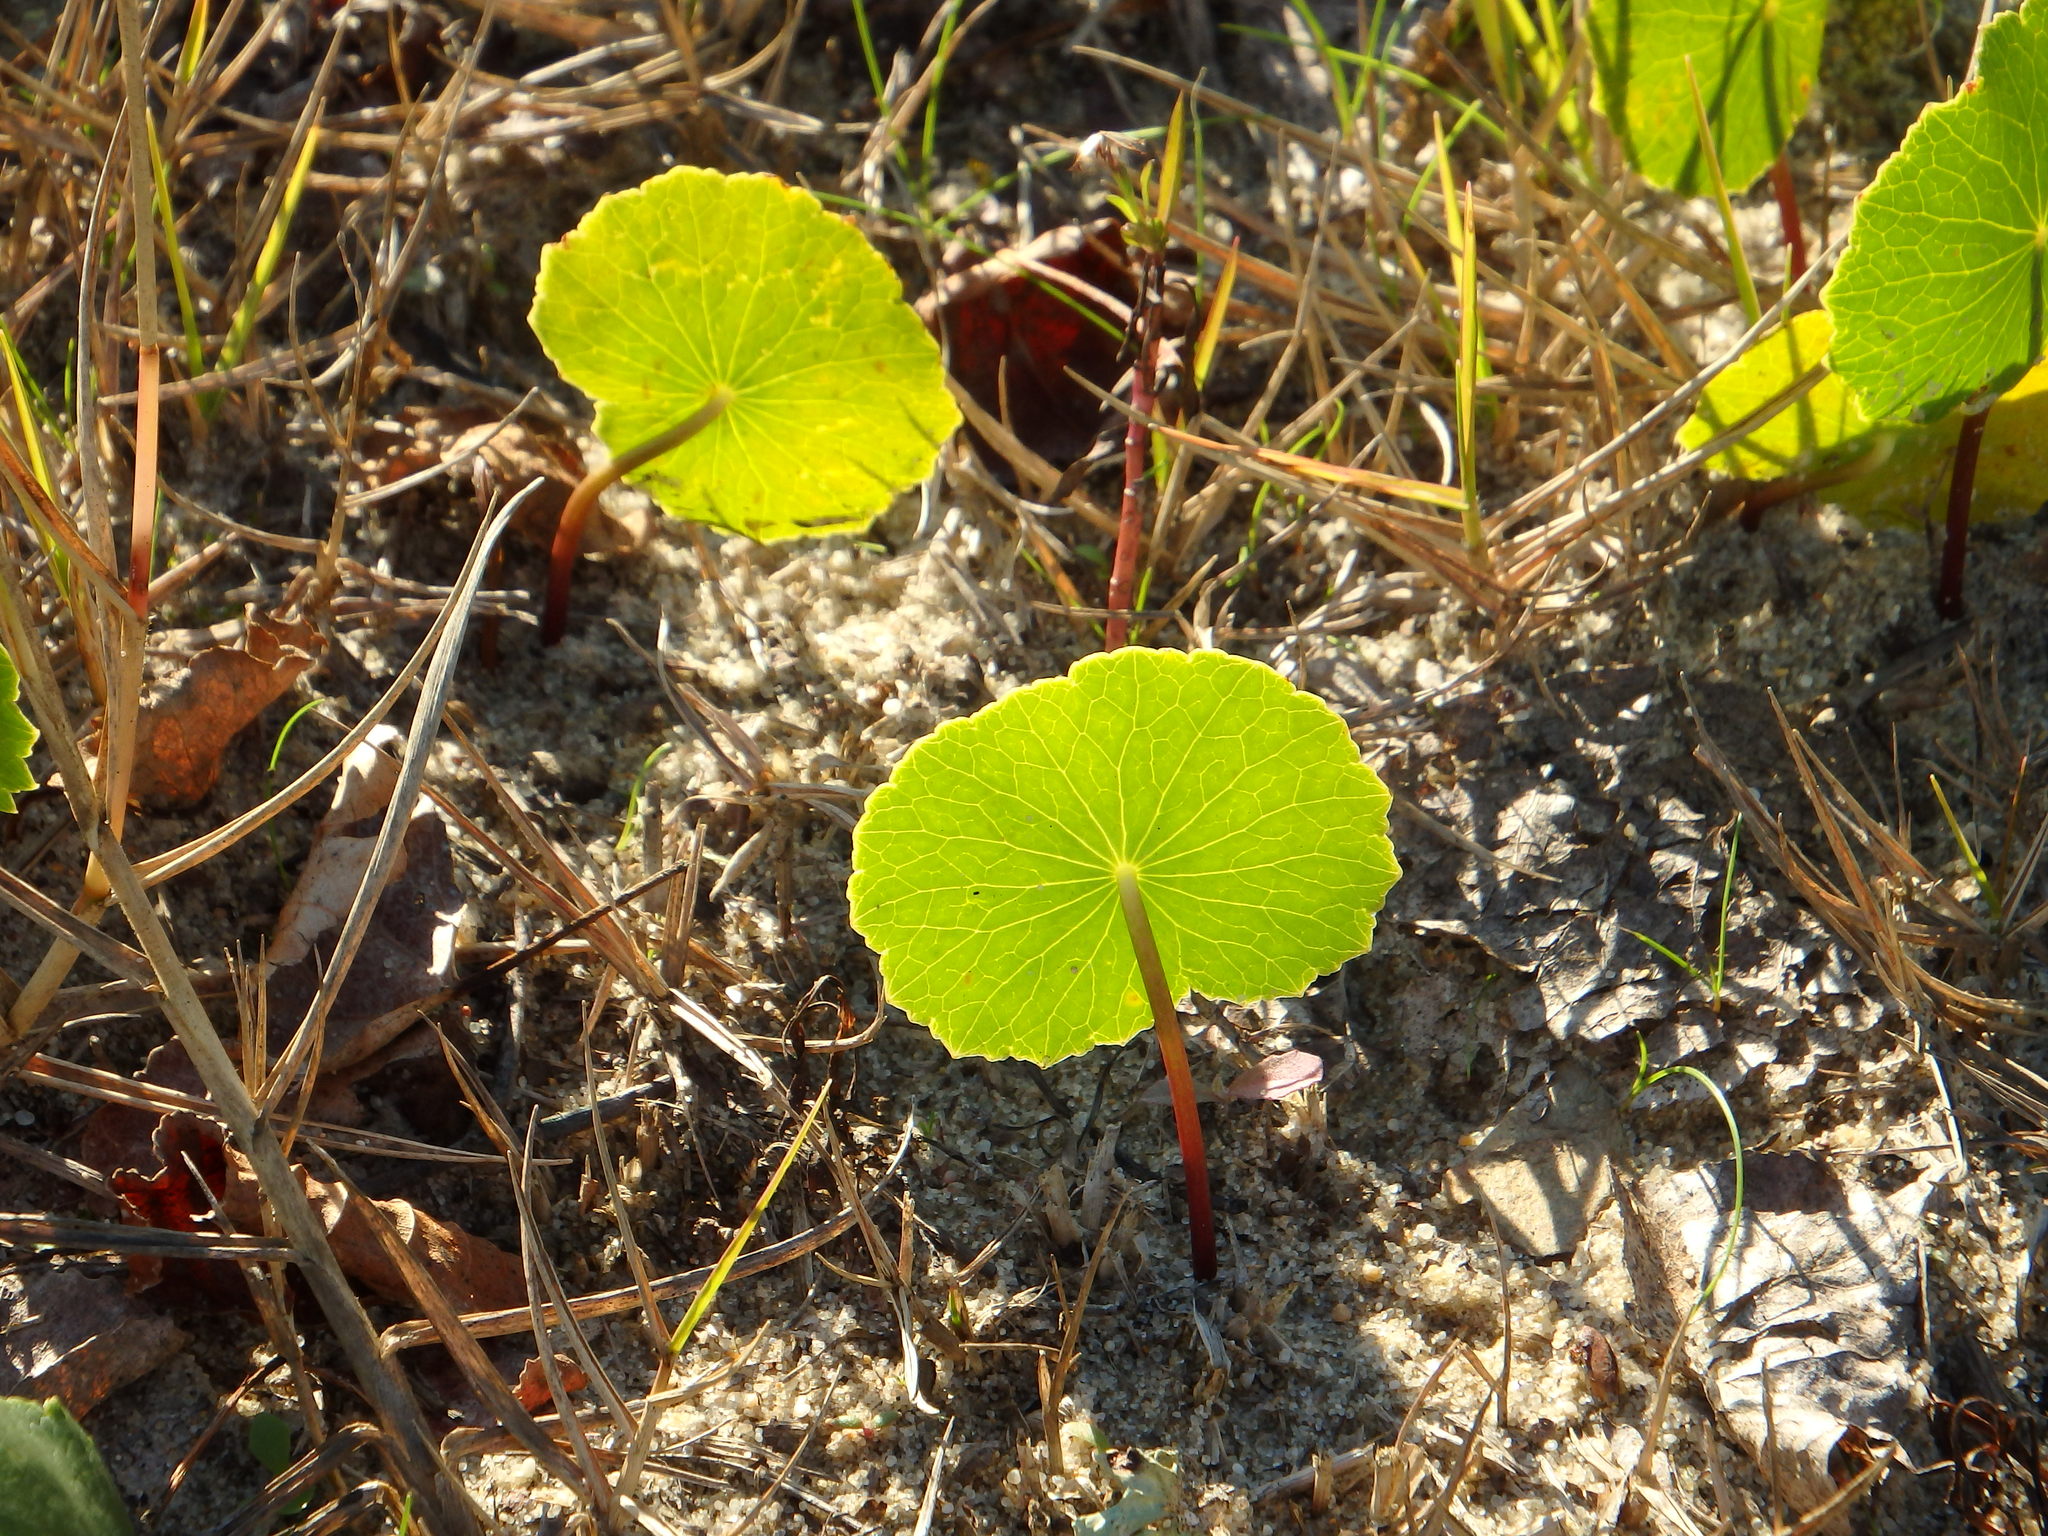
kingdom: Plantae
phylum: Tracheophyta
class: Magnoliopsida
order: Apiales
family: Araliaceae
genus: Hydrocotyle
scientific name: Hydrocotyle bonariensis
